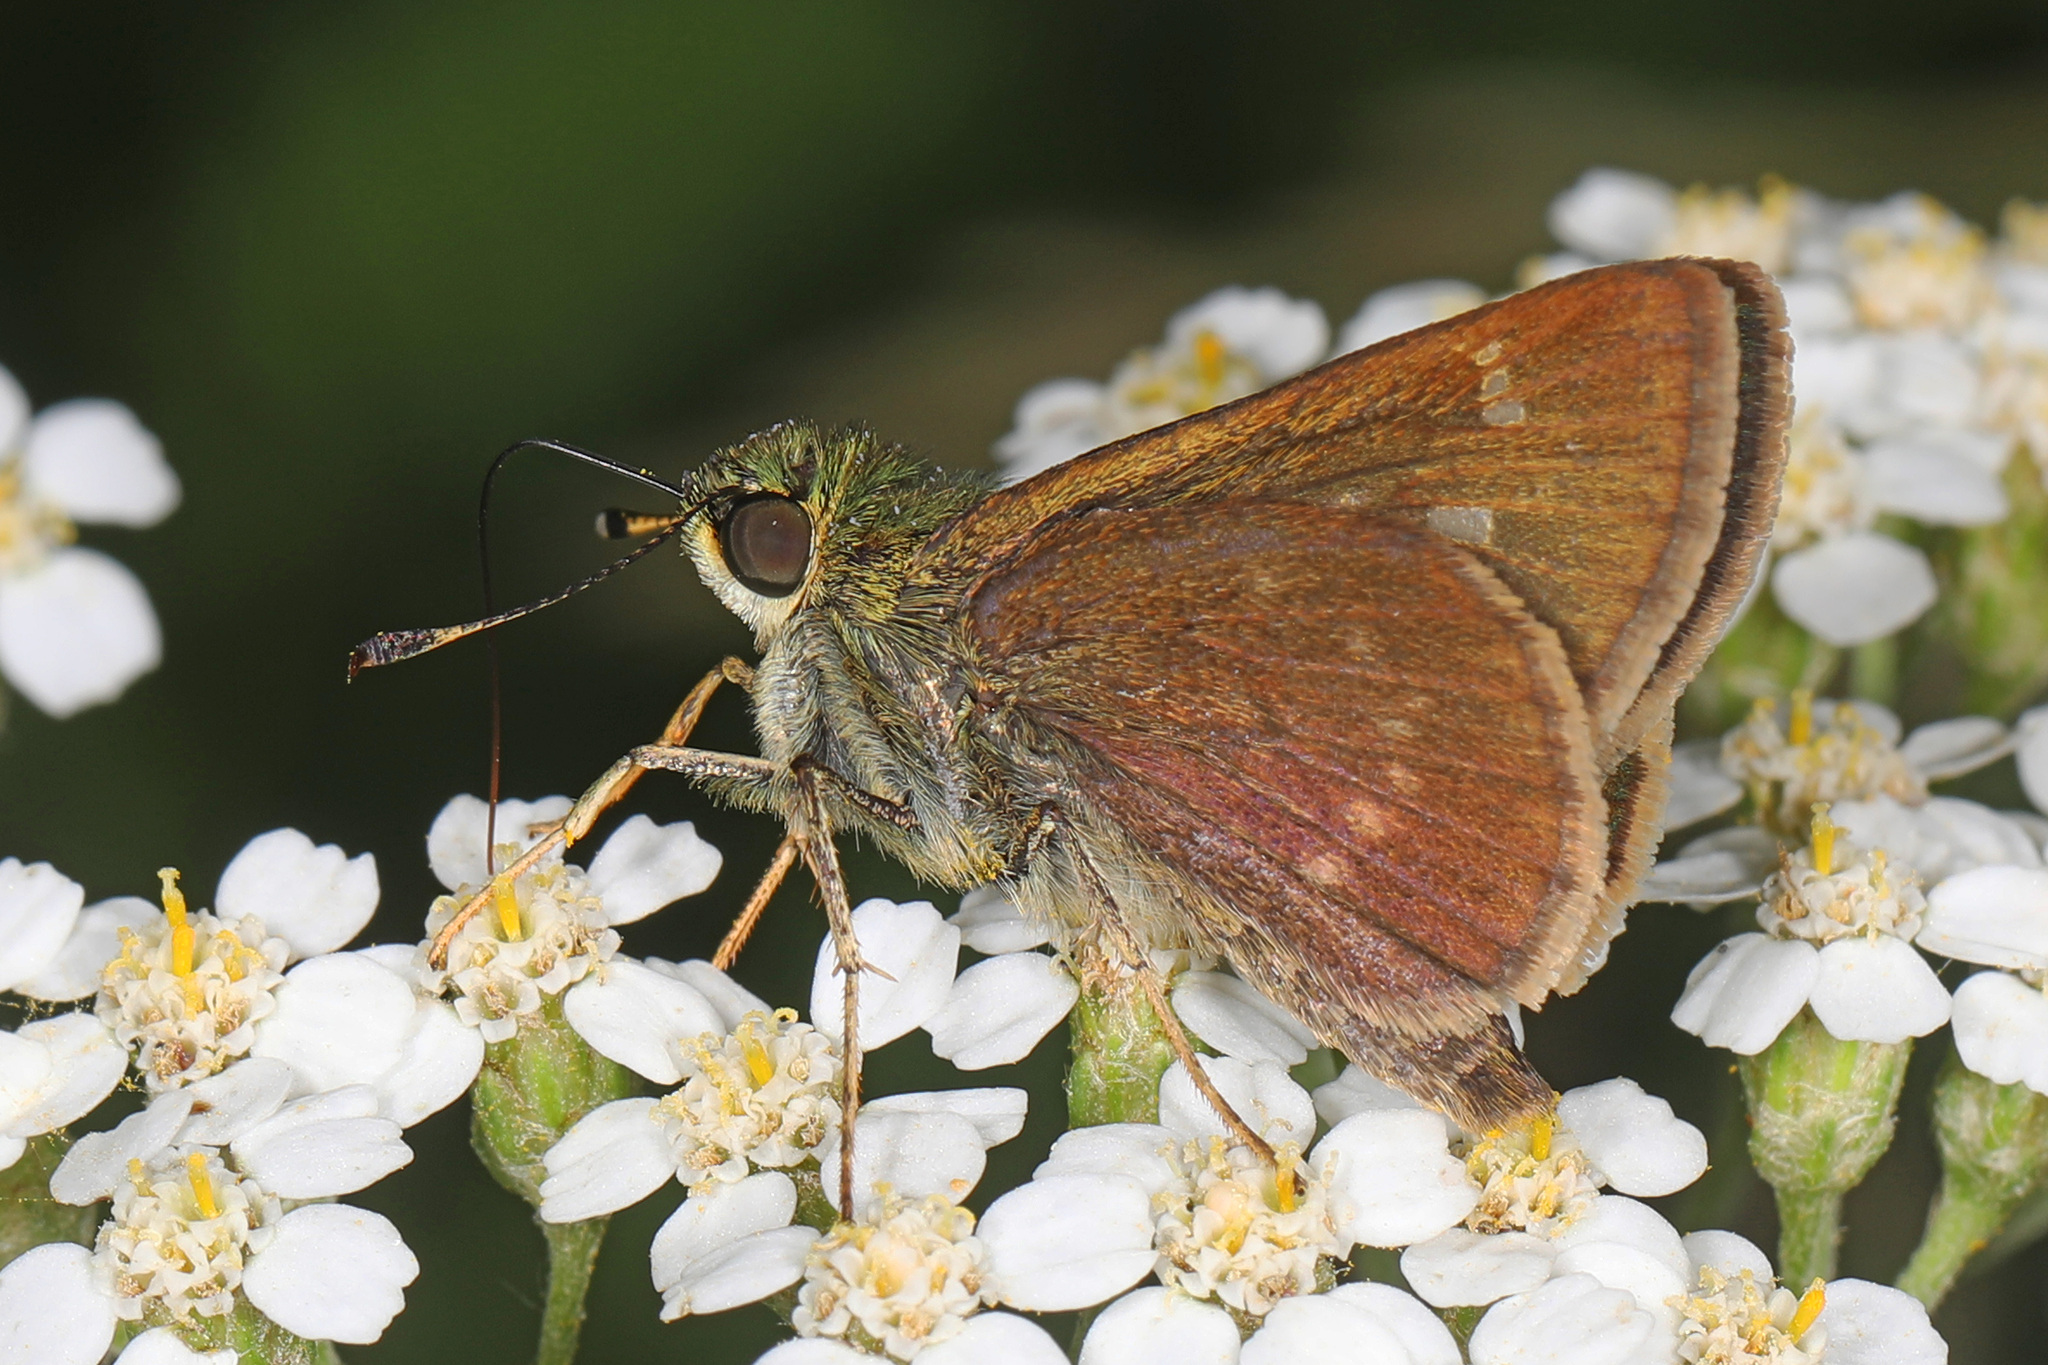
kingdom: Animalia
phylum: Arthropoda
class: Insecta
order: Lepidoptera
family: Hesperiidae
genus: Vernia
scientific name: Vernia verna
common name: Little glassywing
